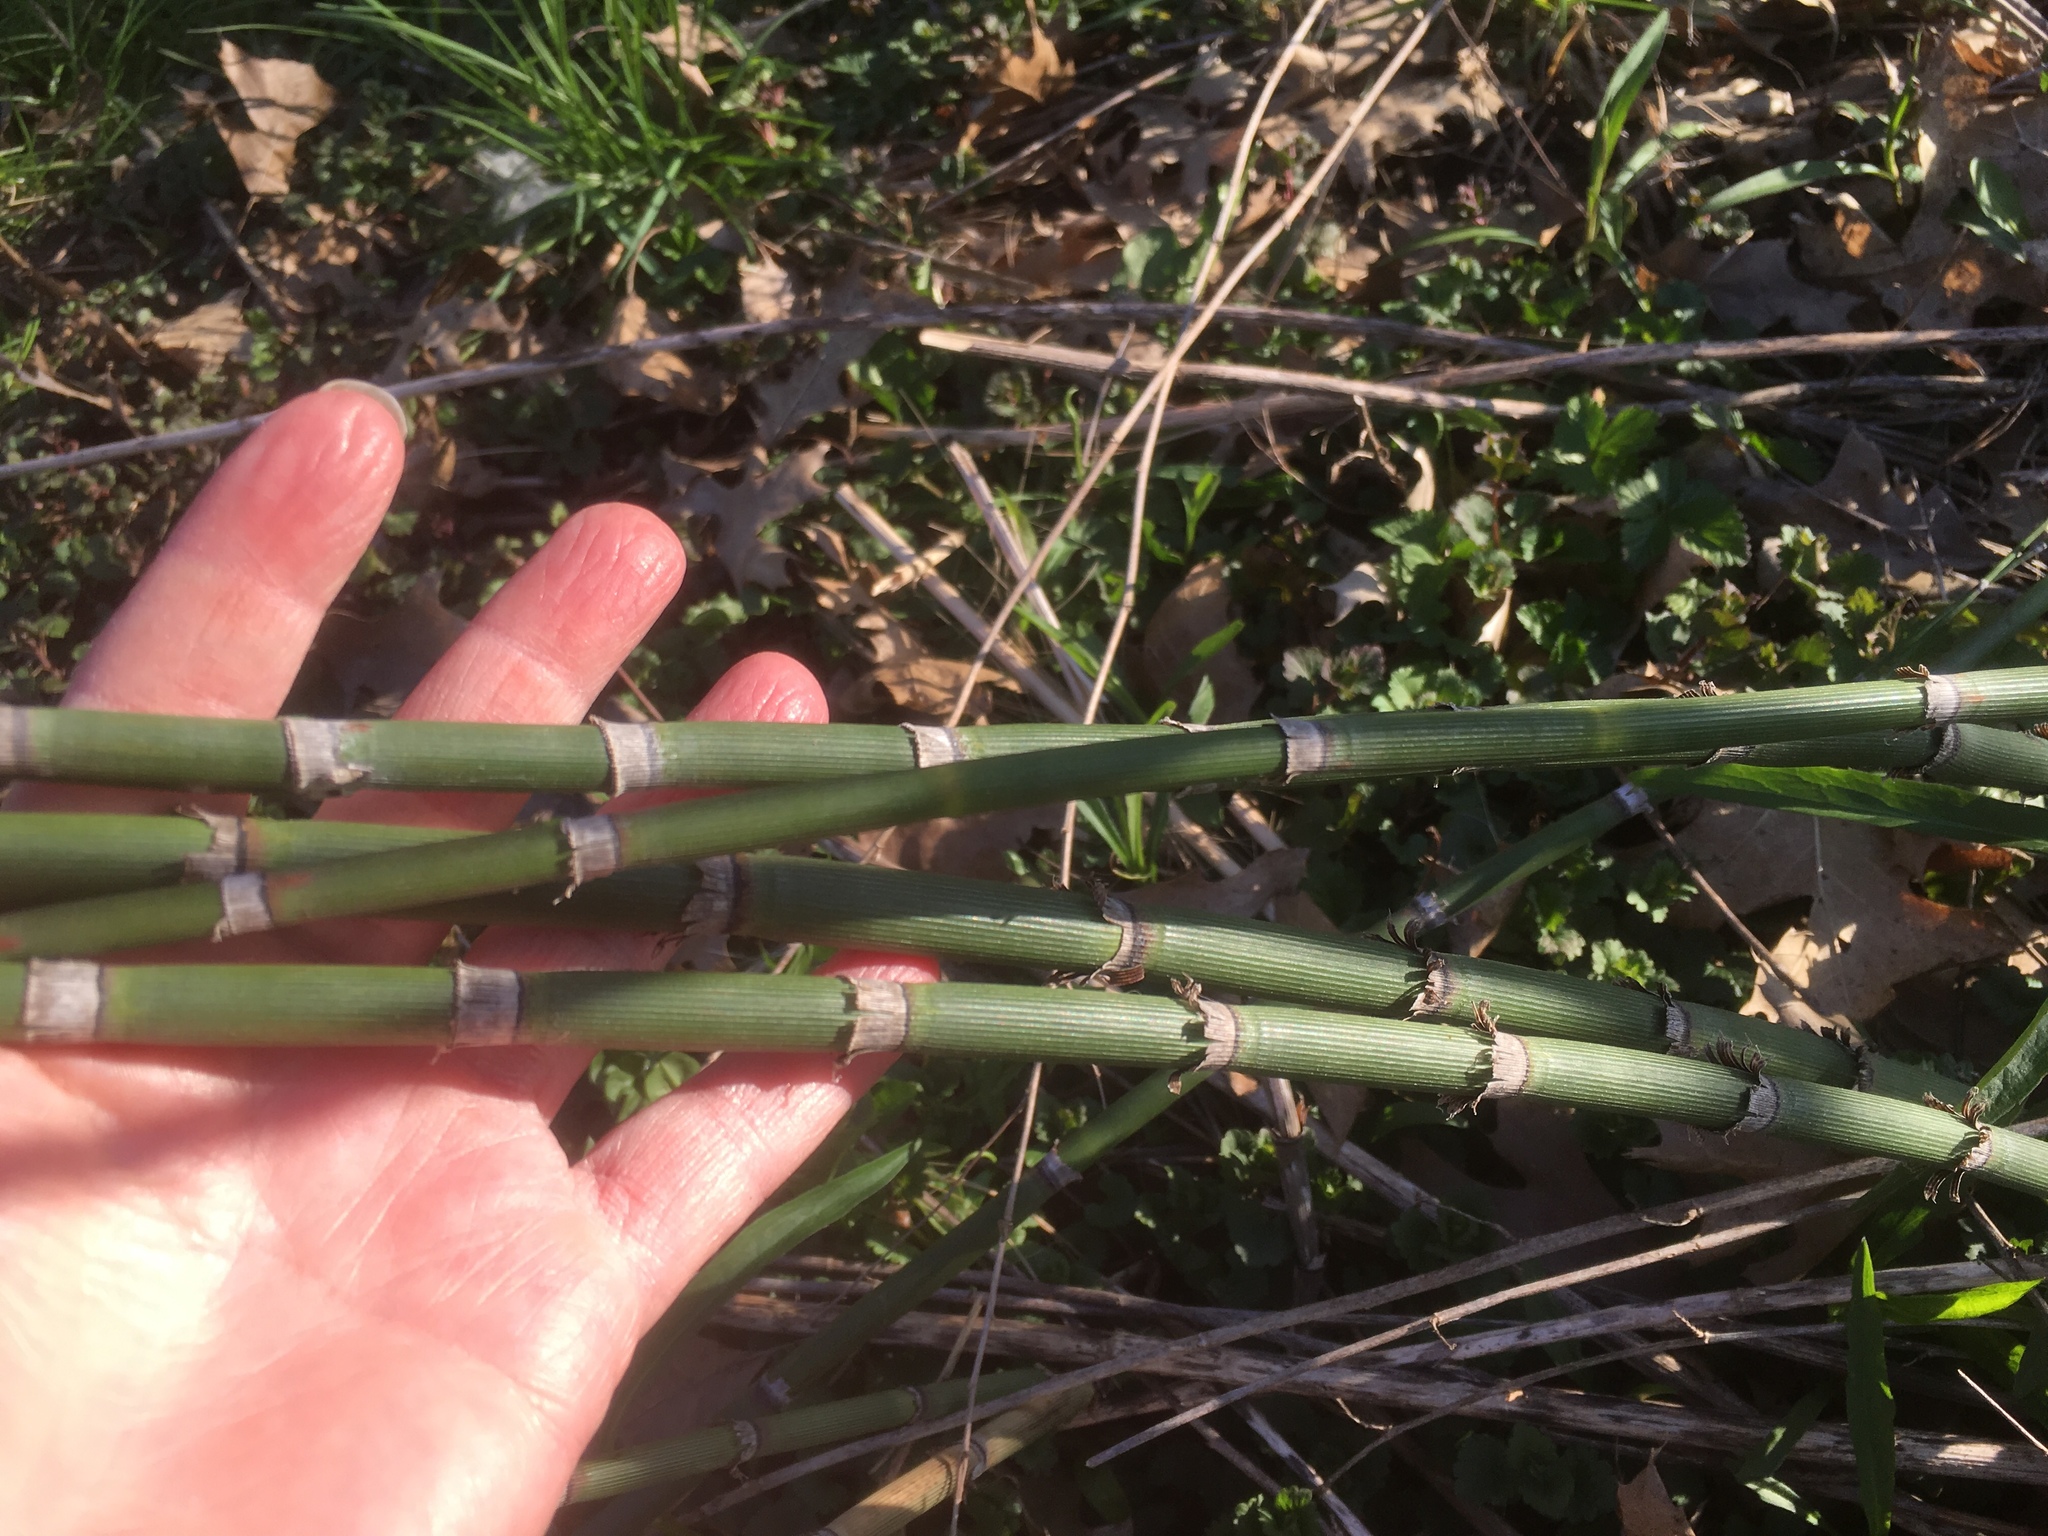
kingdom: Plantae
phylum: Tracheophyta
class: Polypodiopsida
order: Equisetales
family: Equisetaceae
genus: Equisetum
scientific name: Equisetum hyemale
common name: Rough horsetail
